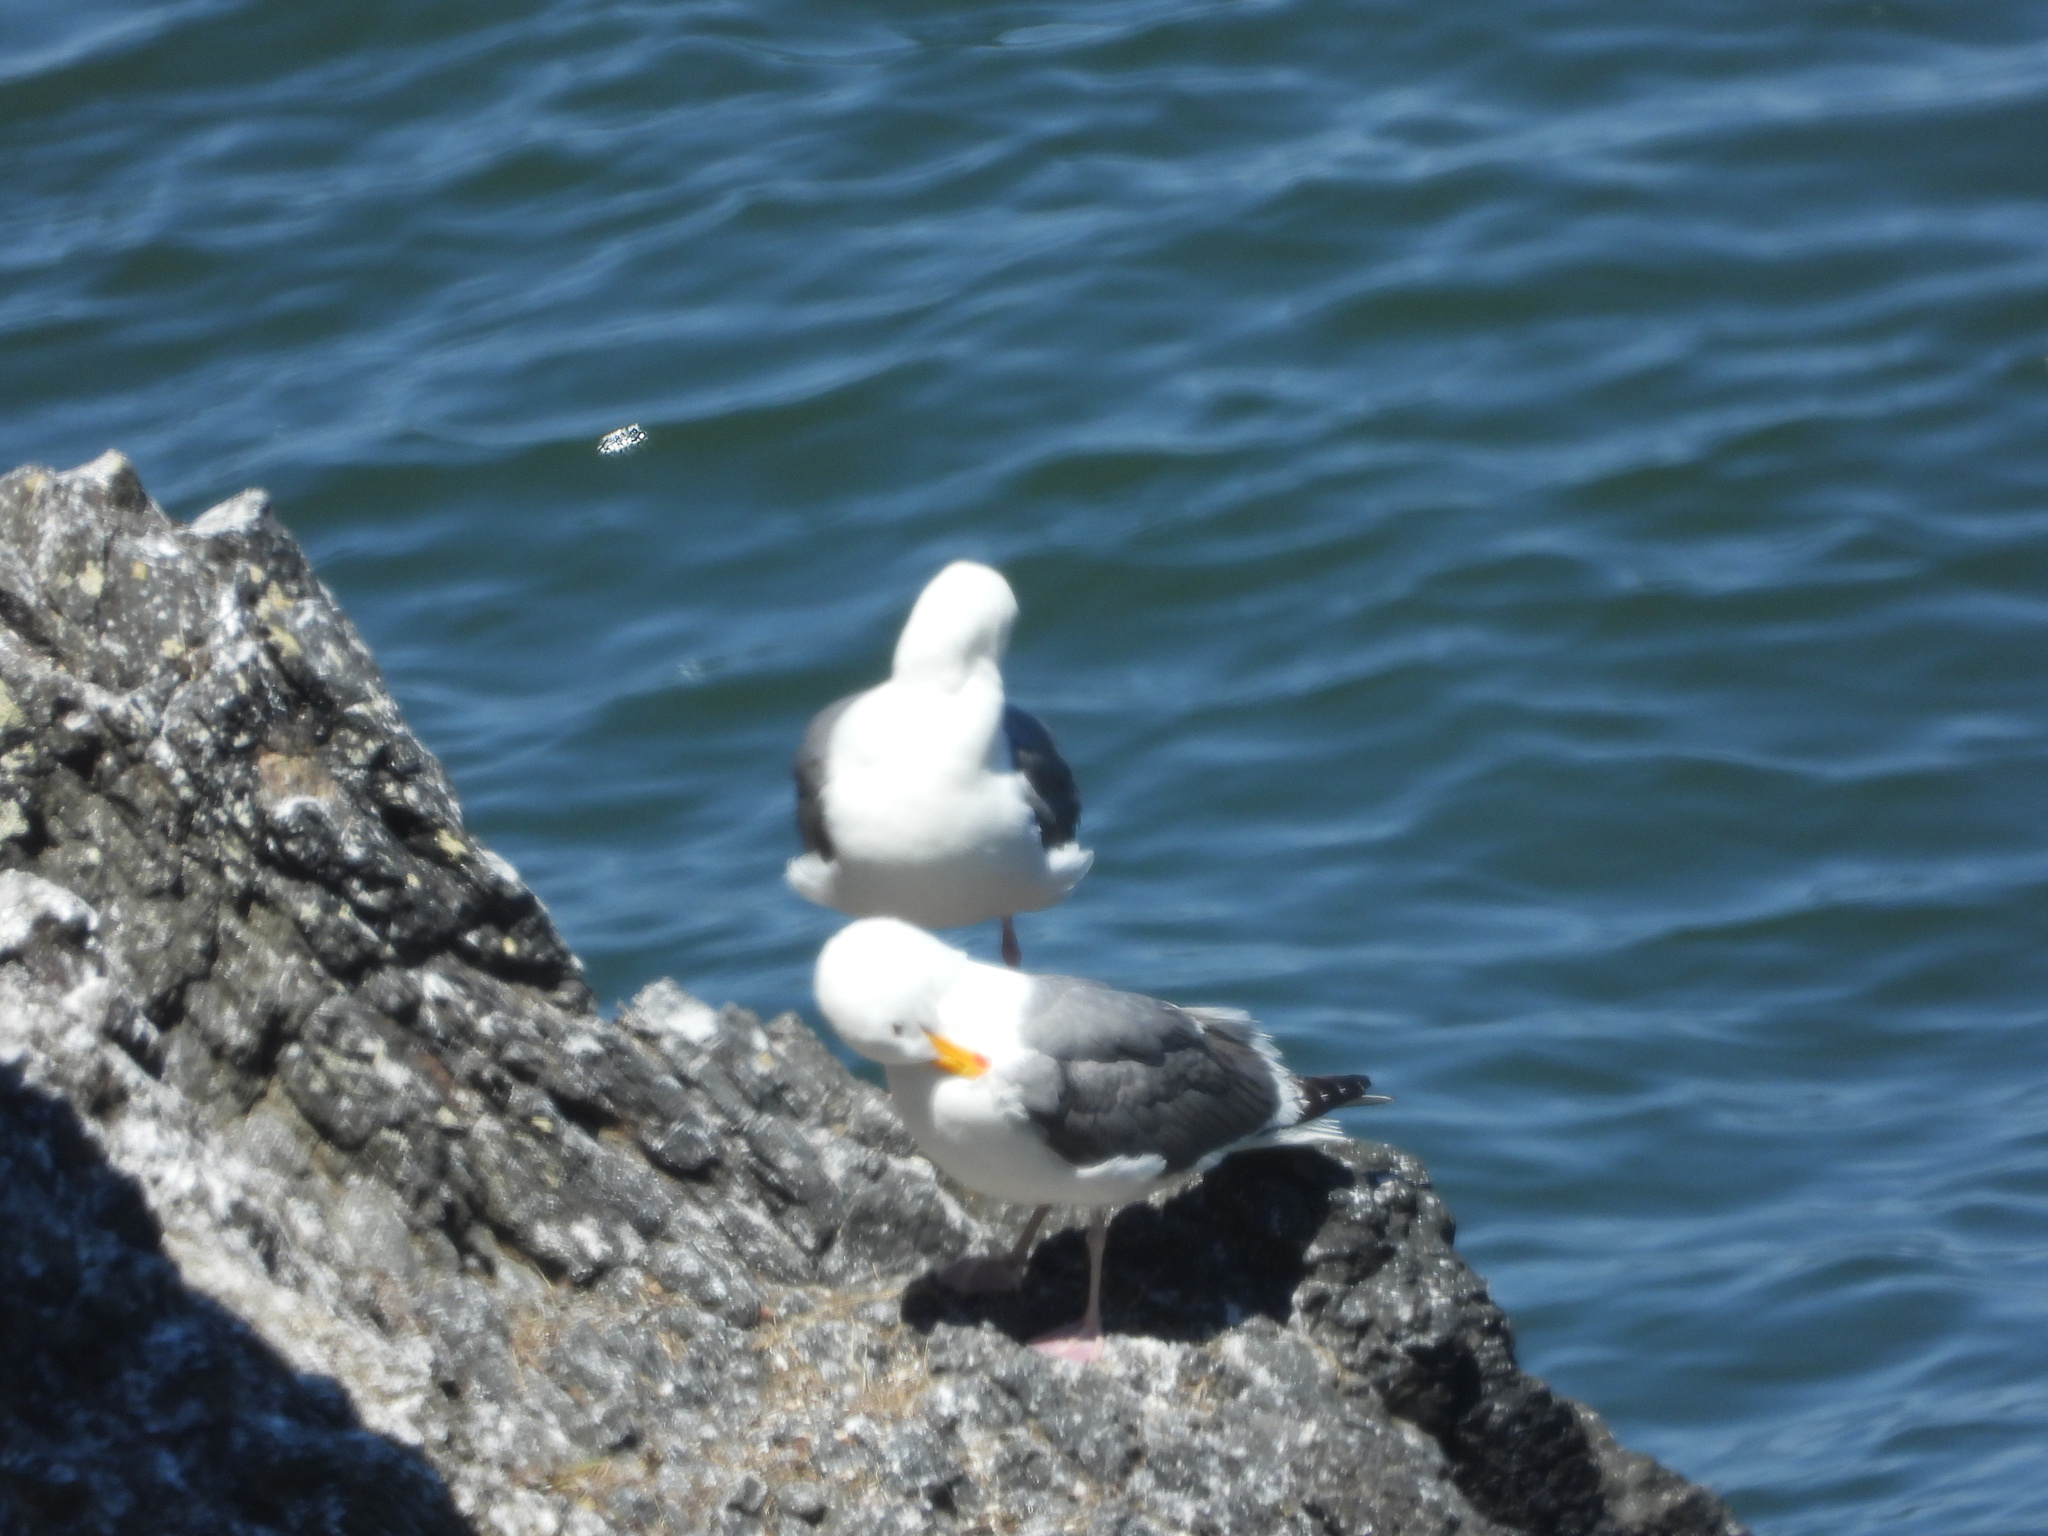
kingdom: Animalia
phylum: Chordata
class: Aves
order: Charadriiformes
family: Laridae
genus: Larus
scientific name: Larus occidentalis
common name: Western gull
